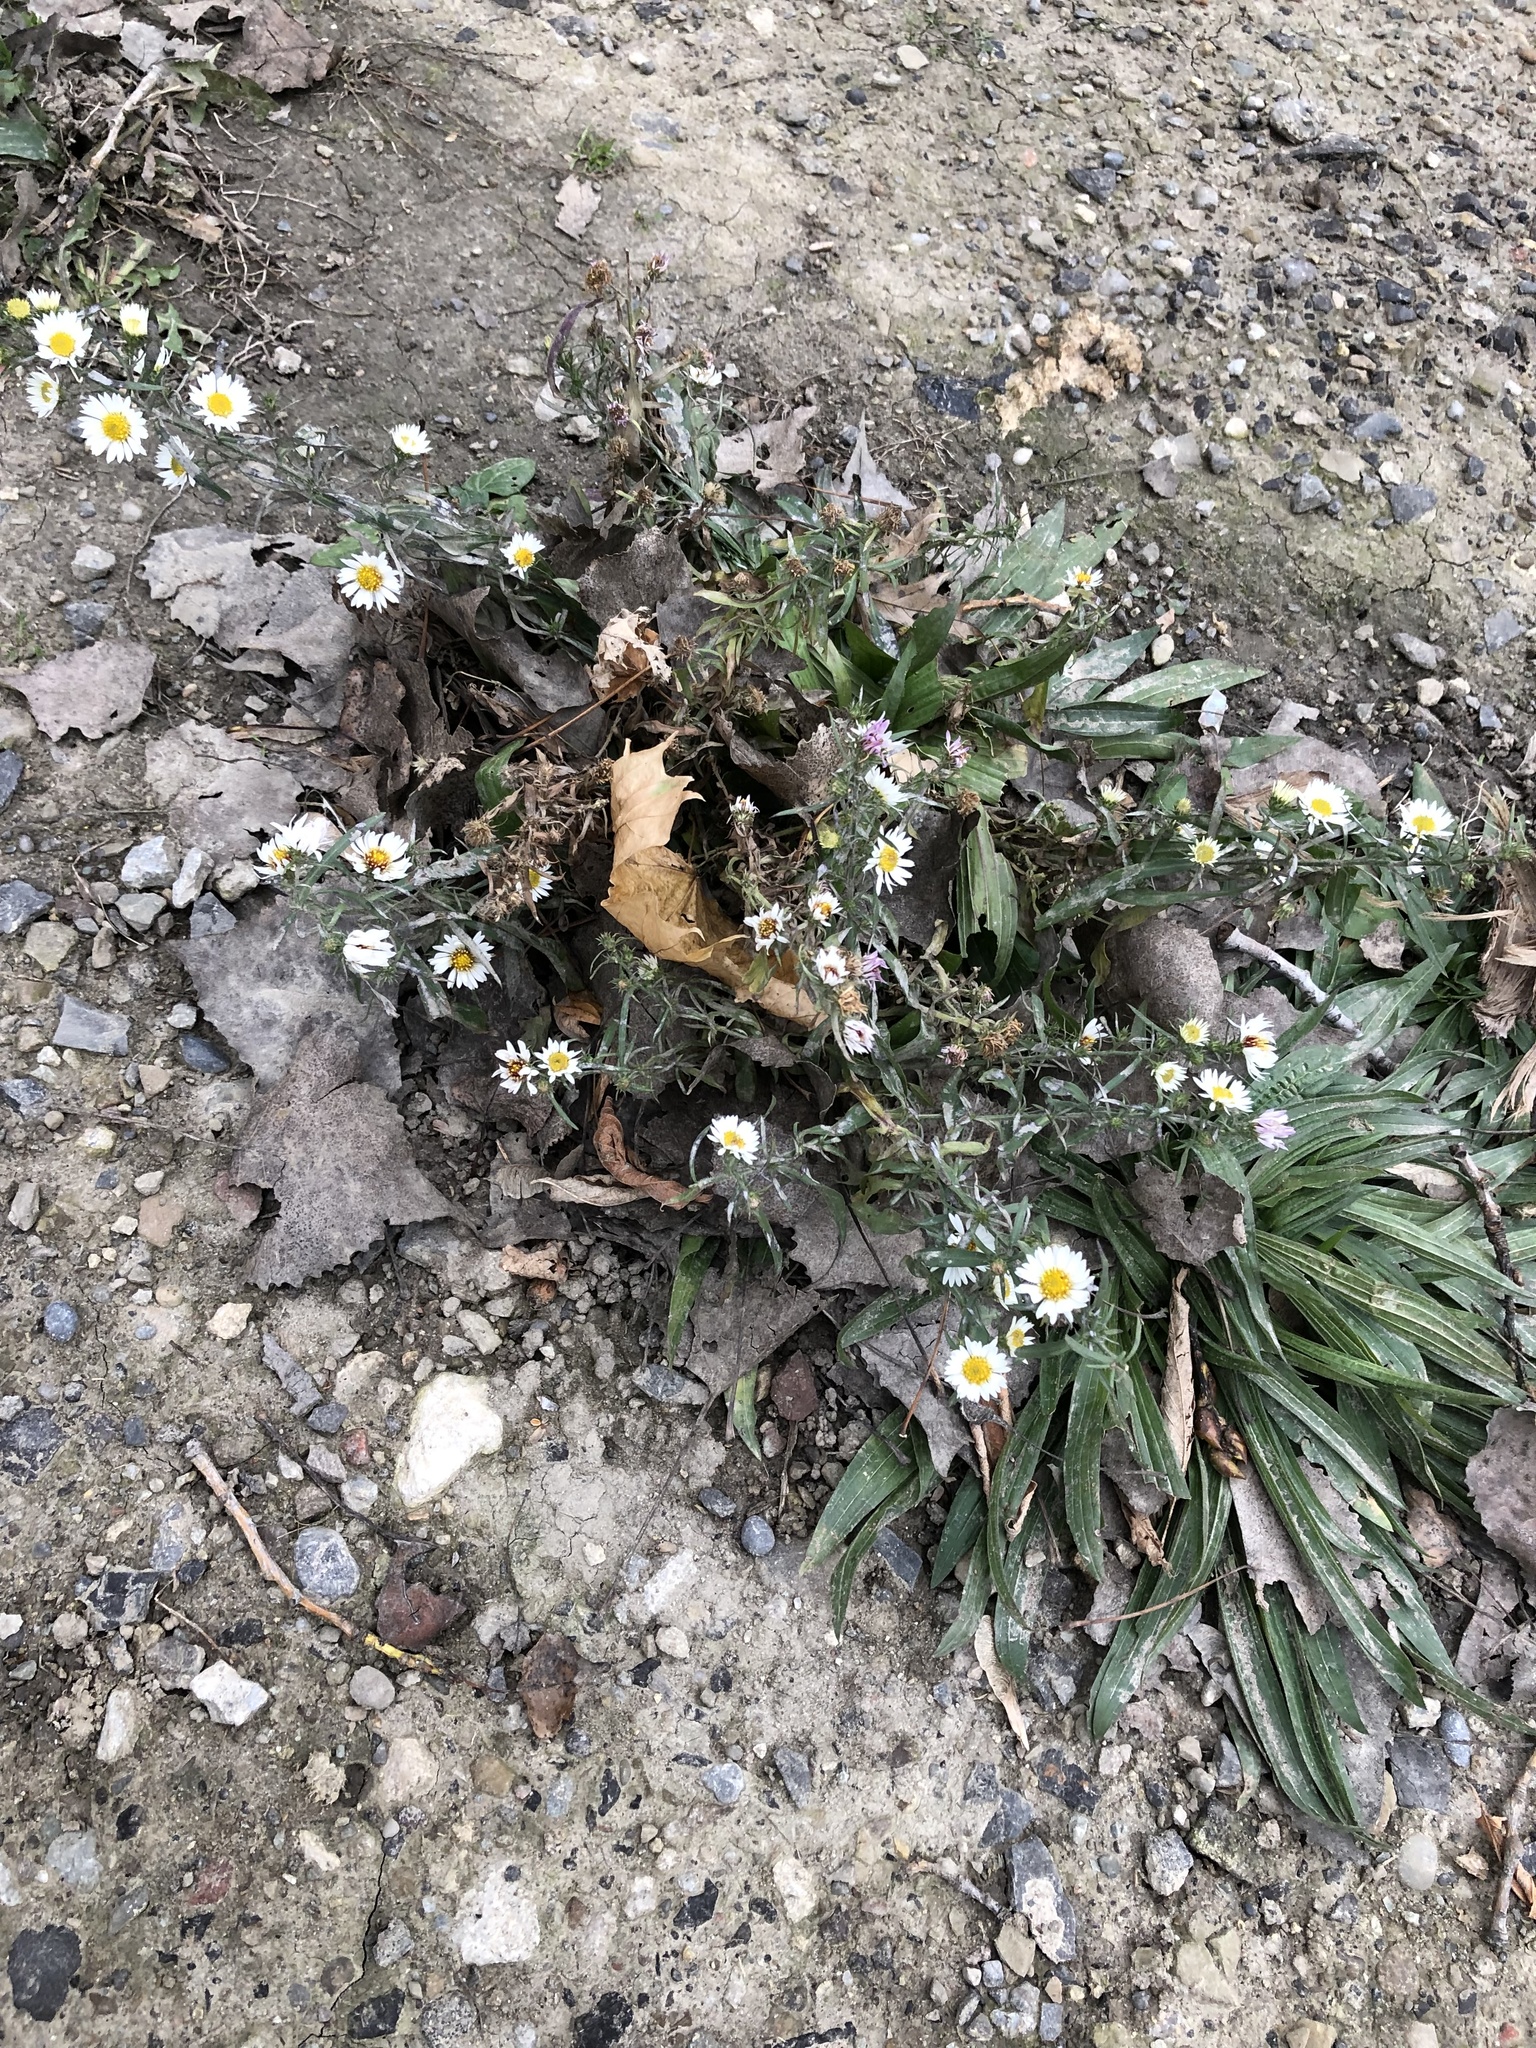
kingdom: Plantae
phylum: Tracheophyta
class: Magnoliopsida
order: Asterales
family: Asteraceae
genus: Symphyotrichum
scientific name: Symphyotrichum pilosum
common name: Awl aster
